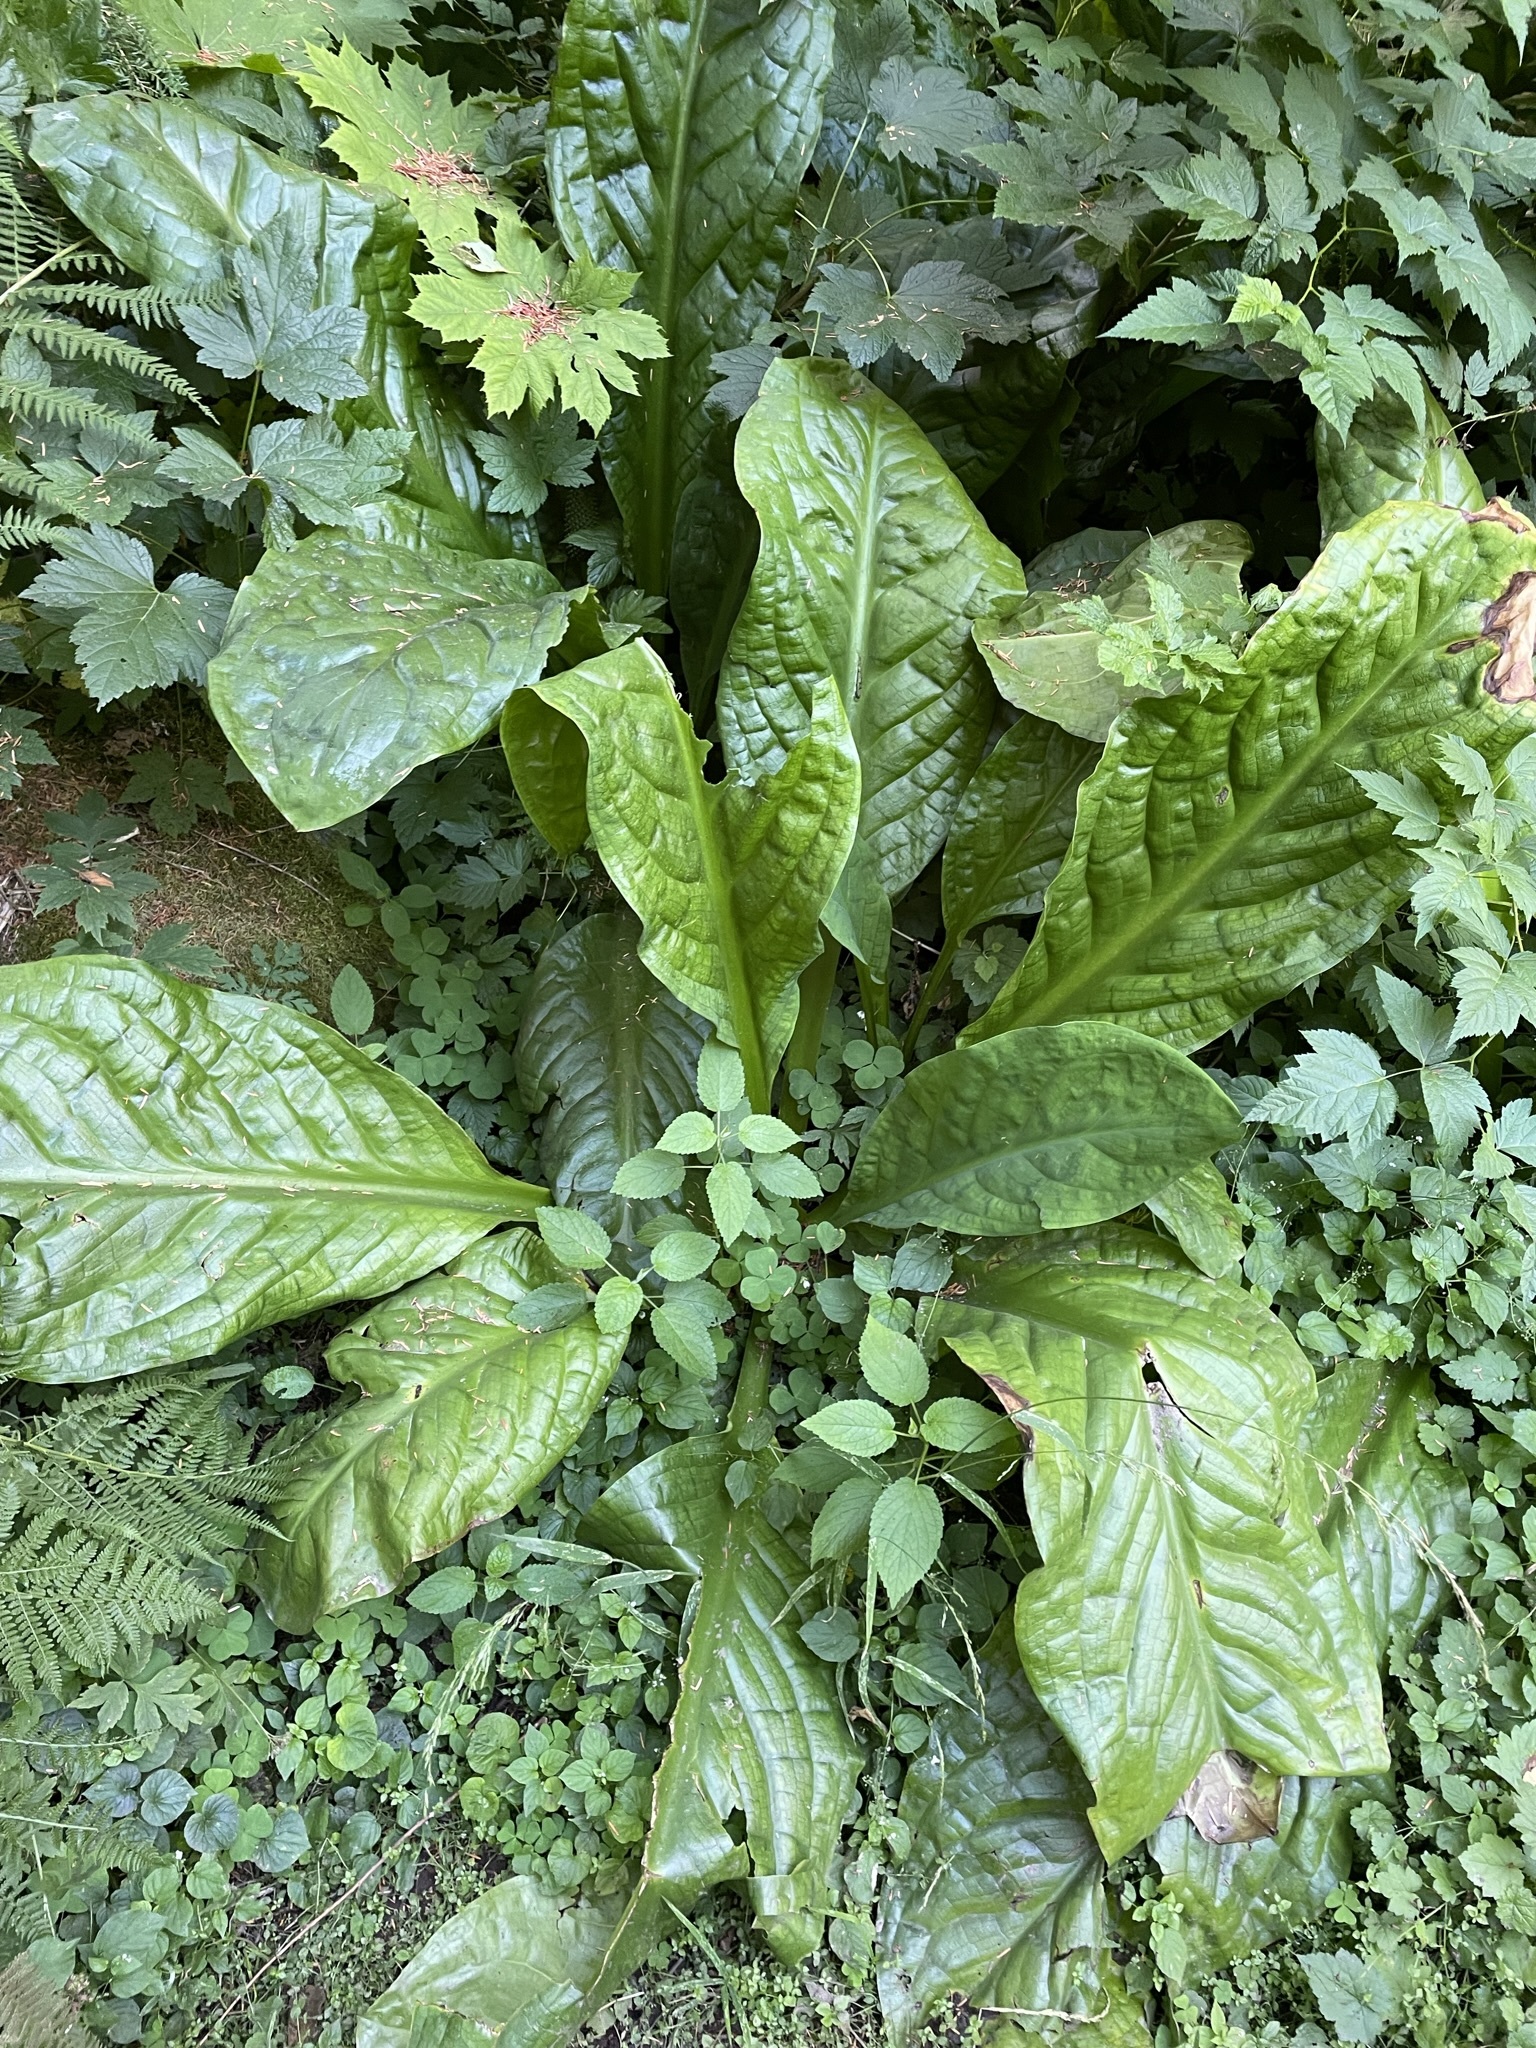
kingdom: Plantae
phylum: Tracheophyta
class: Liliopsida
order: Alismatales
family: Araceae
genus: Lysichiton
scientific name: Lysichiton americanus
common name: American skunk cabbage
